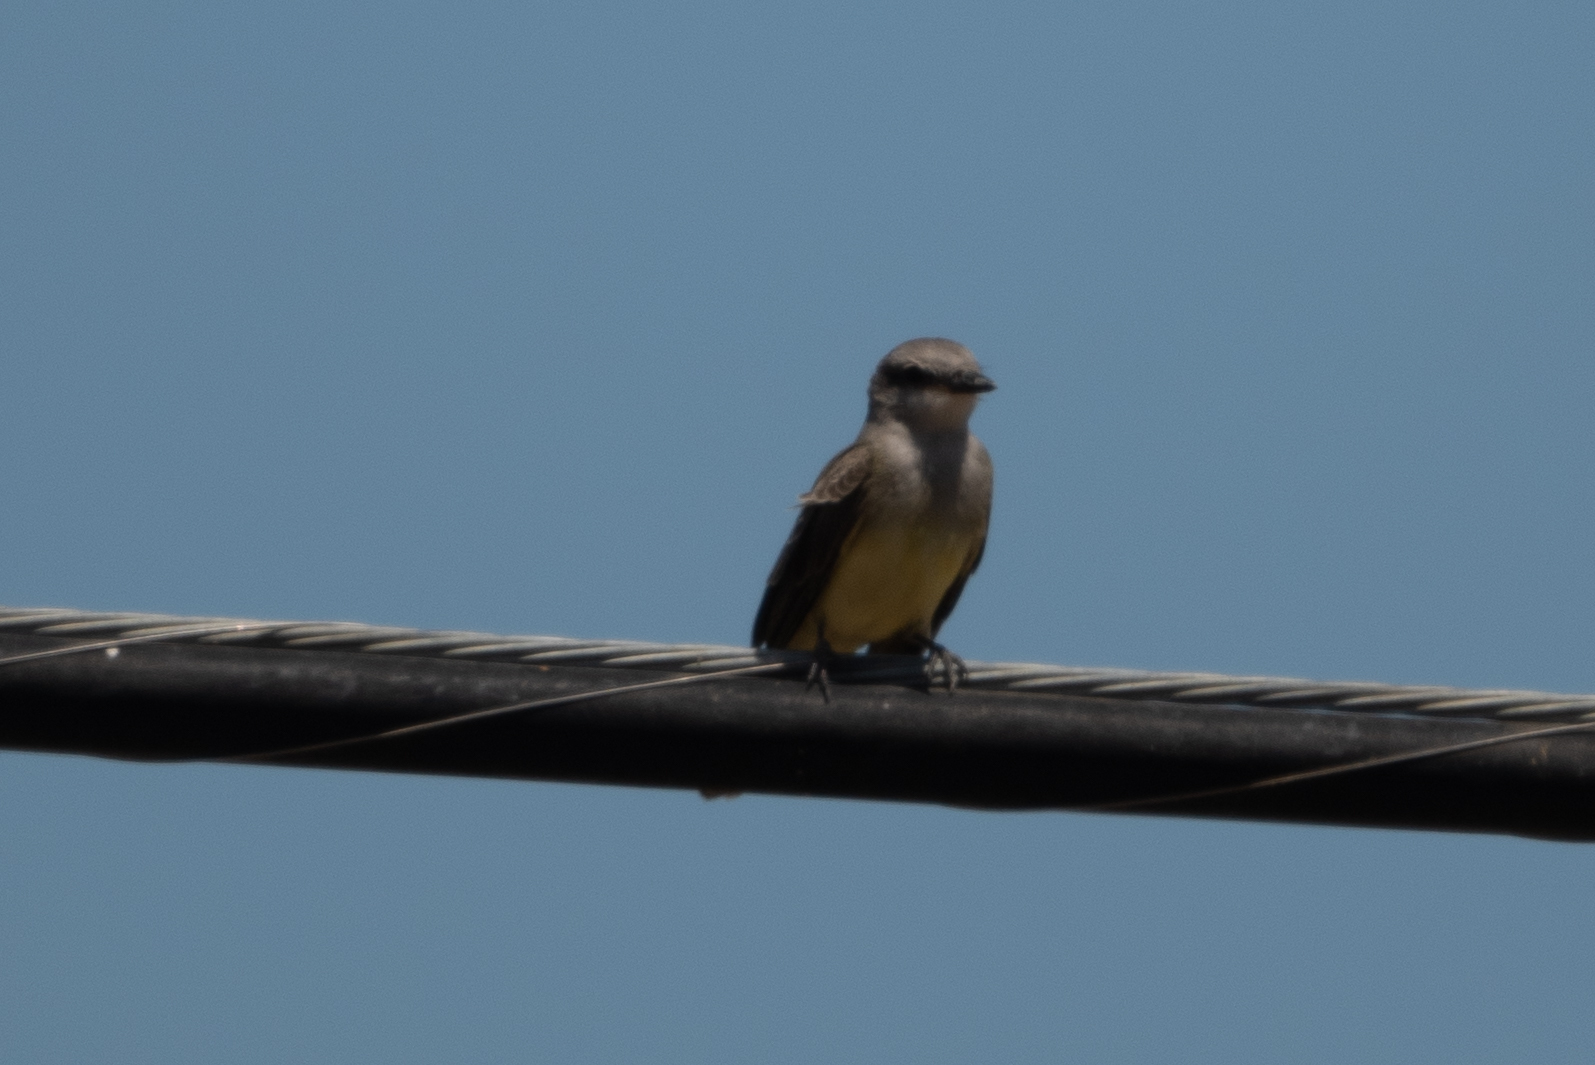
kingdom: Animalia
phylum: Chordata
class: Aves
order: Passeriformes
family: Tyrannidae
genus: Tyrannus
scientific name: Tyrannus verticalis
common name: Western kingbird
